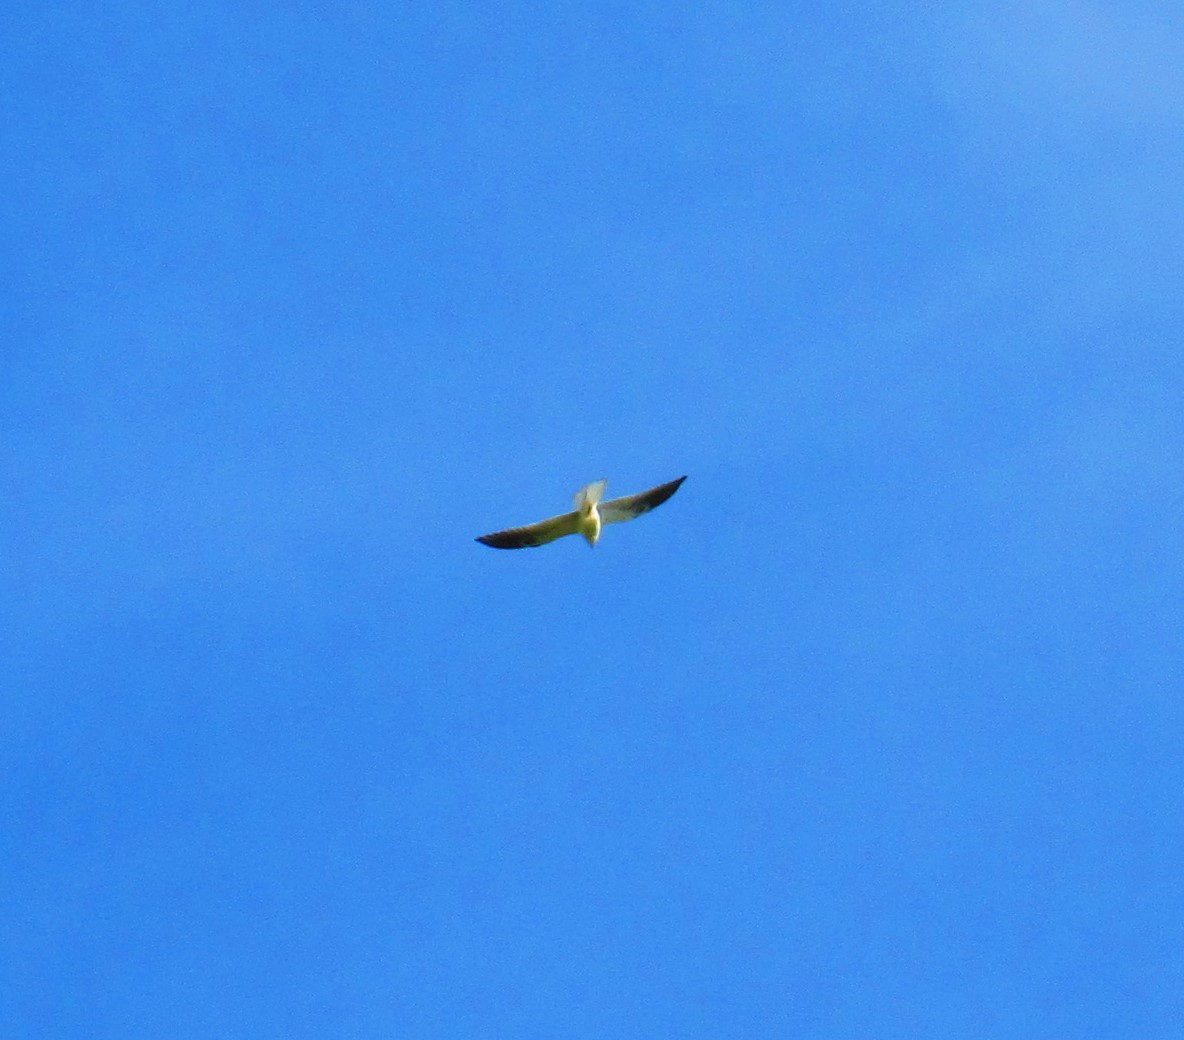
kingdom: Animalia
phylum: Chordata
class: Aves
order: Accipitriformes
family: Accipitridae
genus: Elanus
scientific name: Elanus leucurus
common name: White-tailed kite
